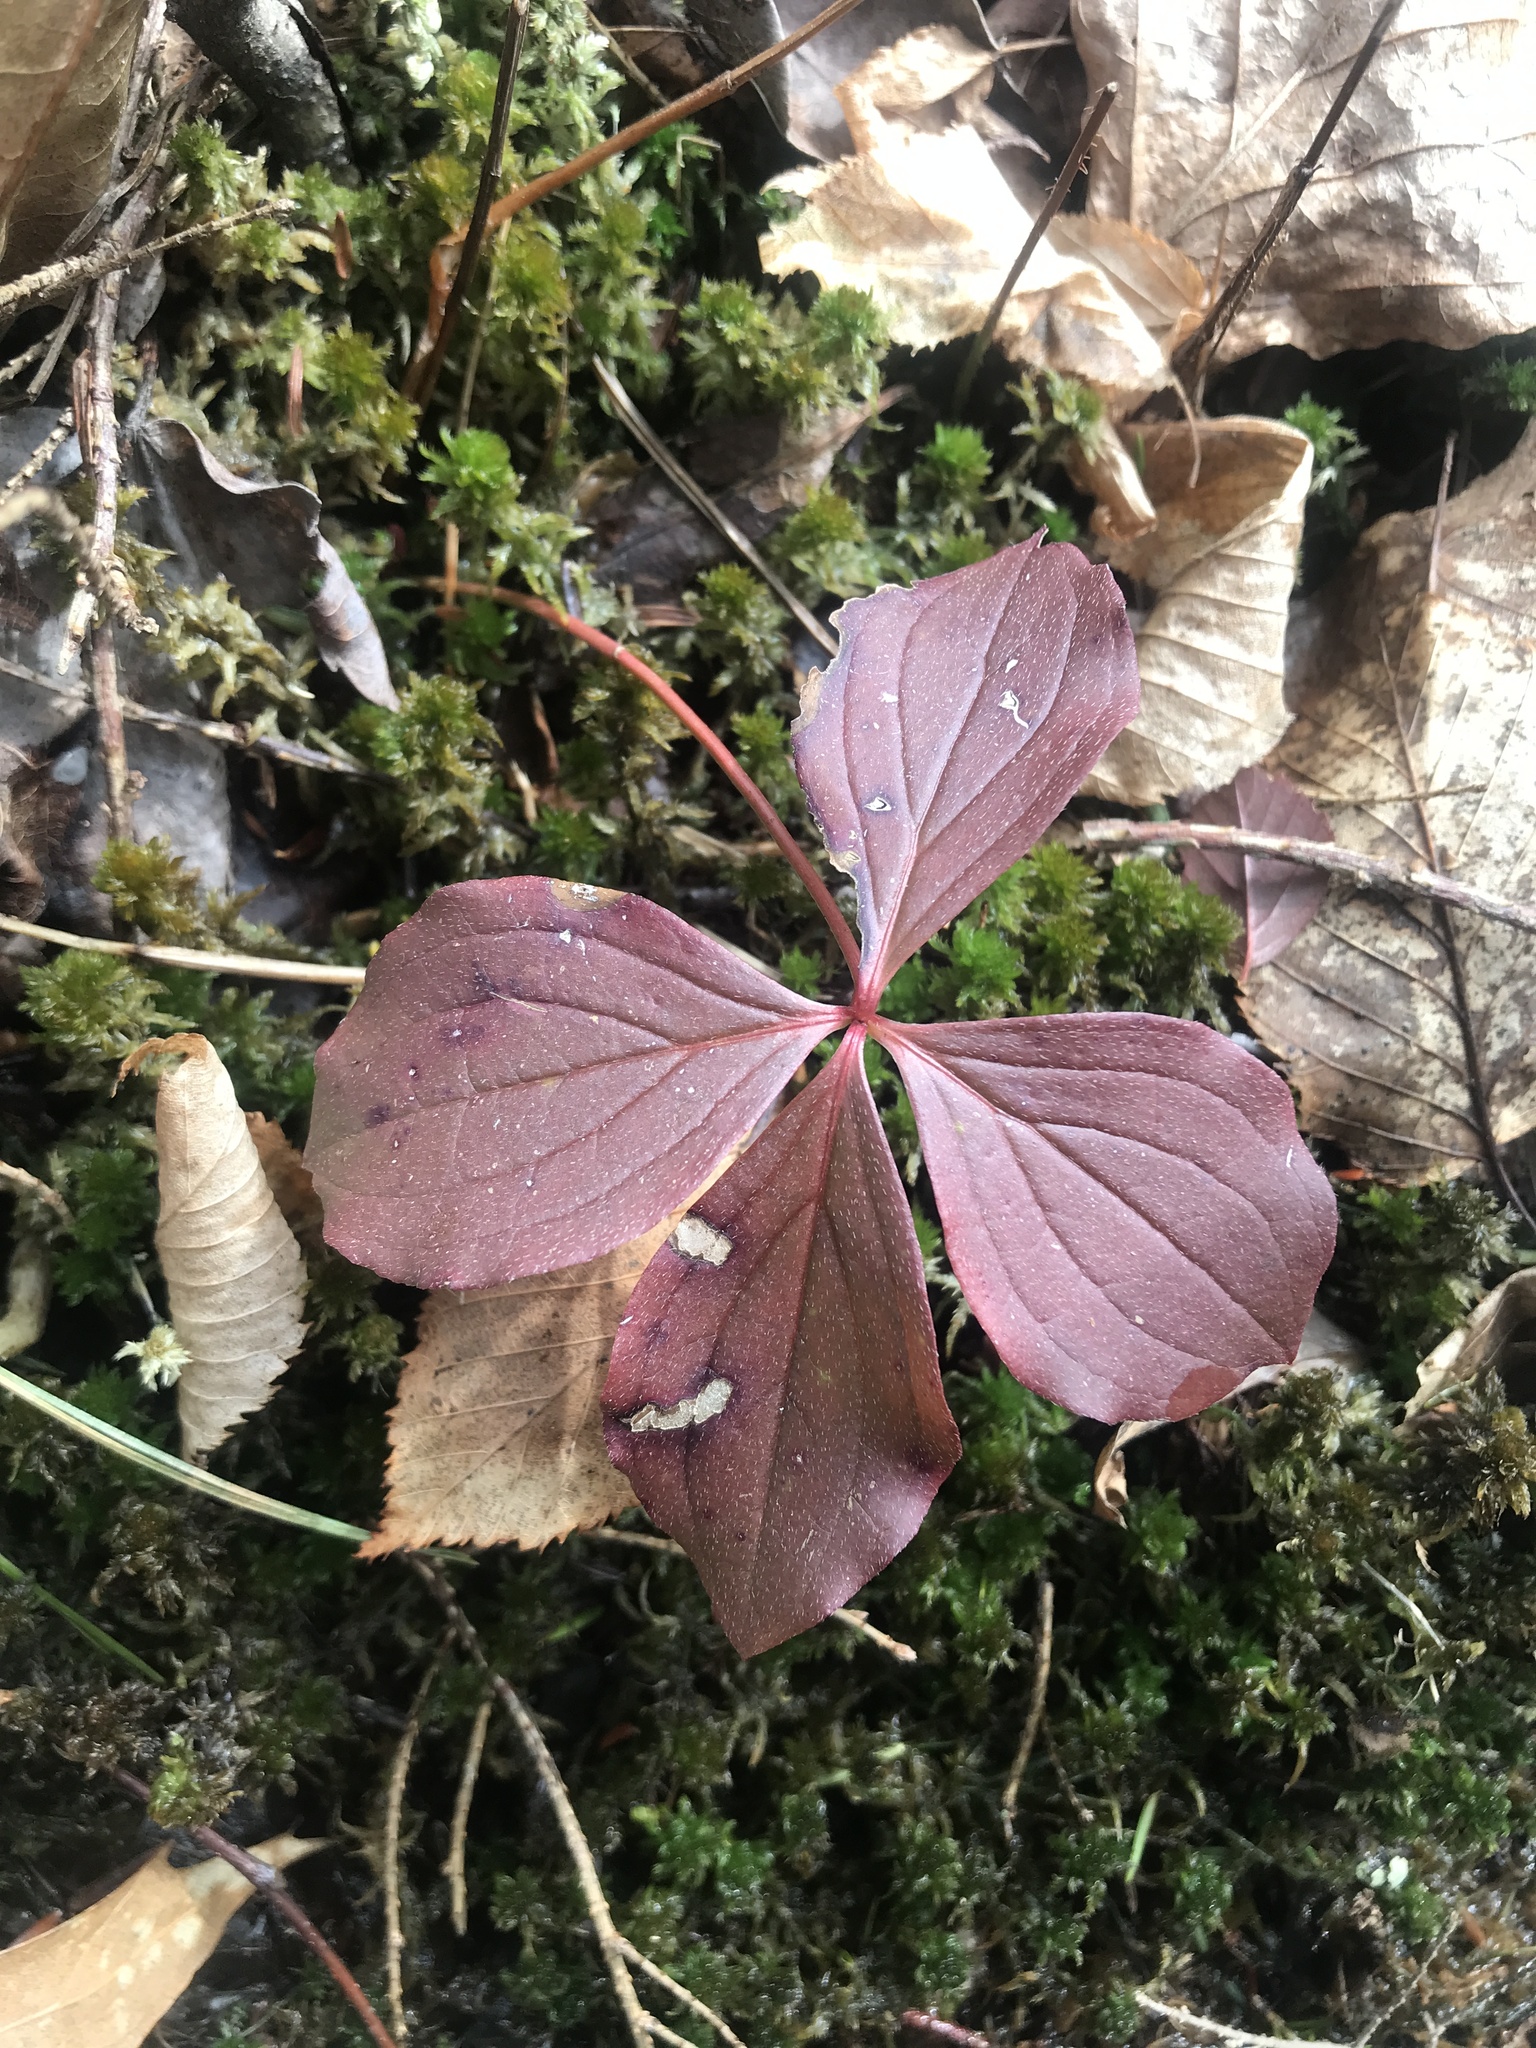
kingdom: Plantae
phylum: Tracheophyta
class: Magnoliopsida
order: Cornales
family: Cornaceae
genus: Cornus
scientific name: Cornus canadensis
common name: Creeping dogwood
